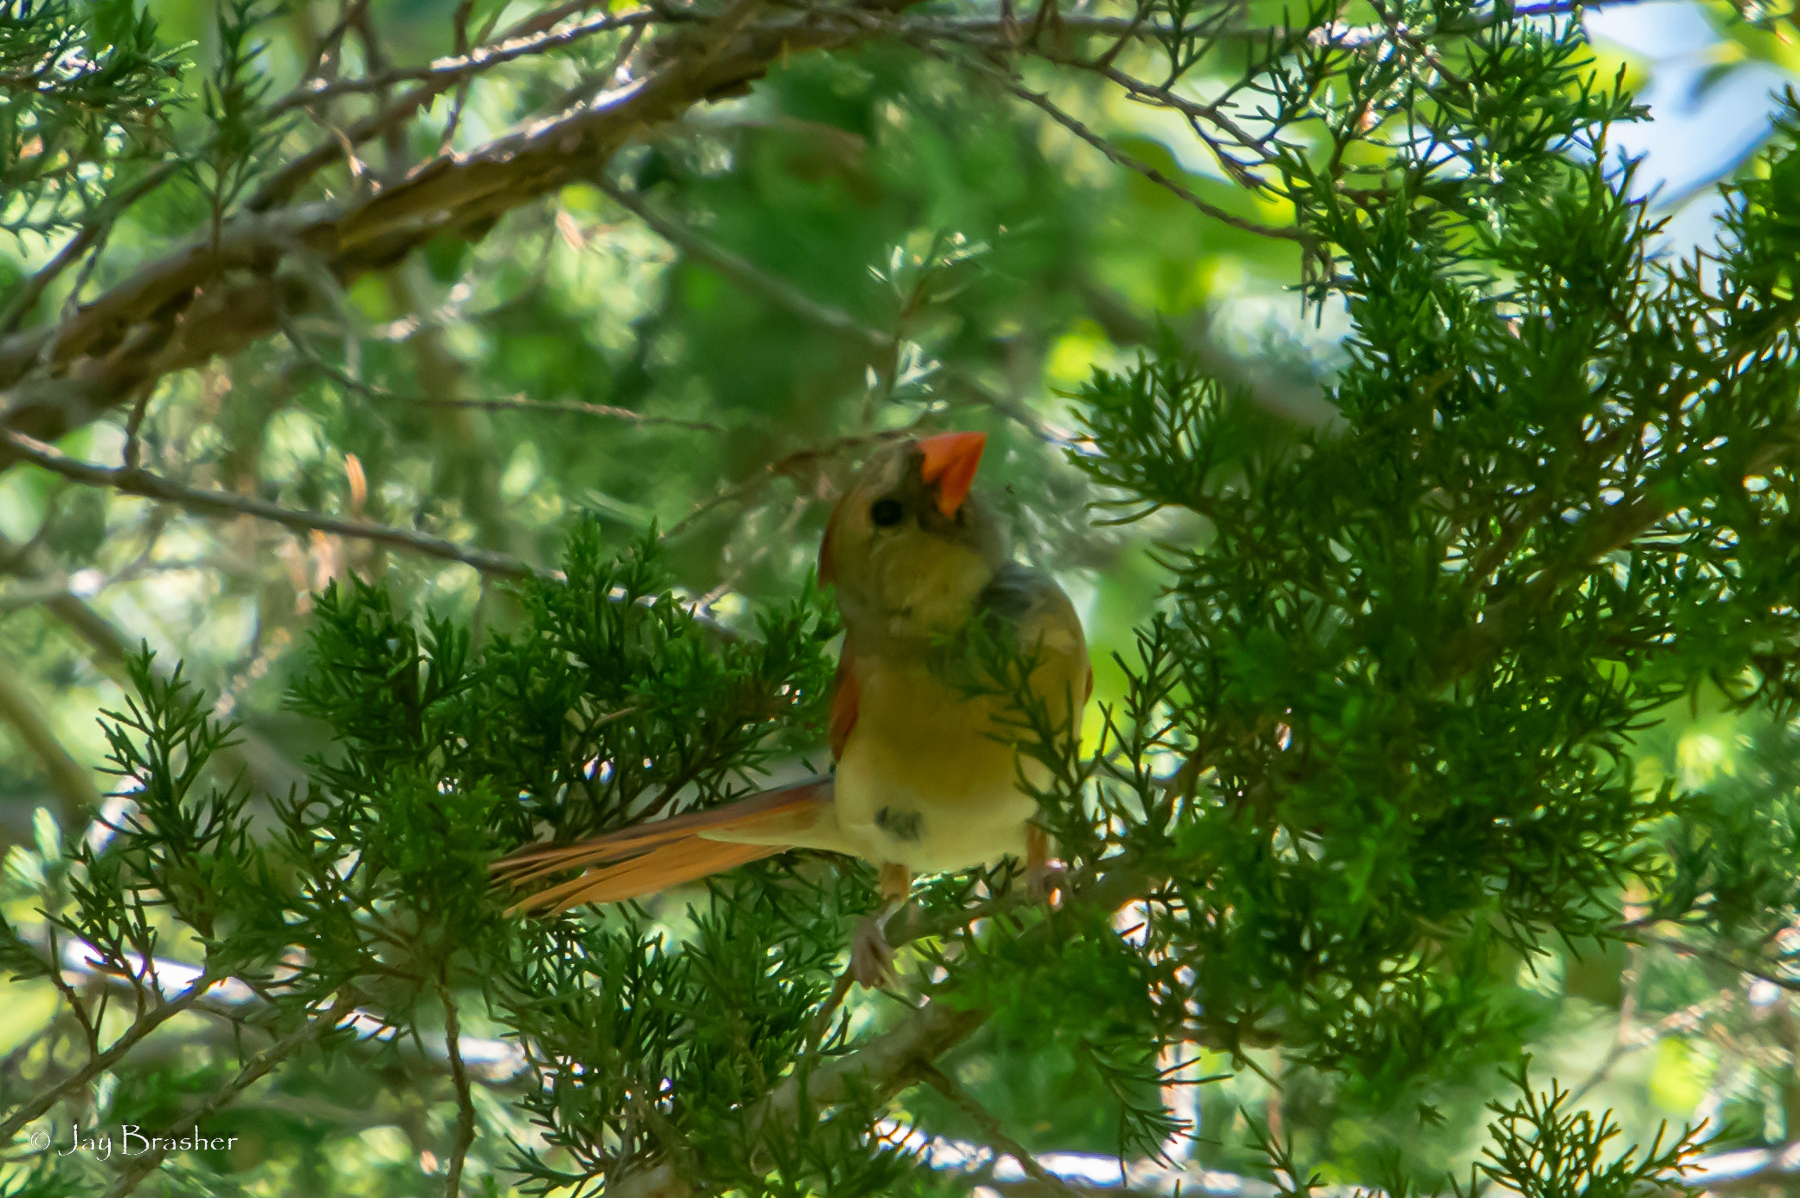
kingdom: Animalia
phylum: Chordata
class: Aves
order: Passeriformes
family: Cardinalidae
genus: Cardinalis
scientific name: Cardinalis cardinalis
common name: Northern cardinal
